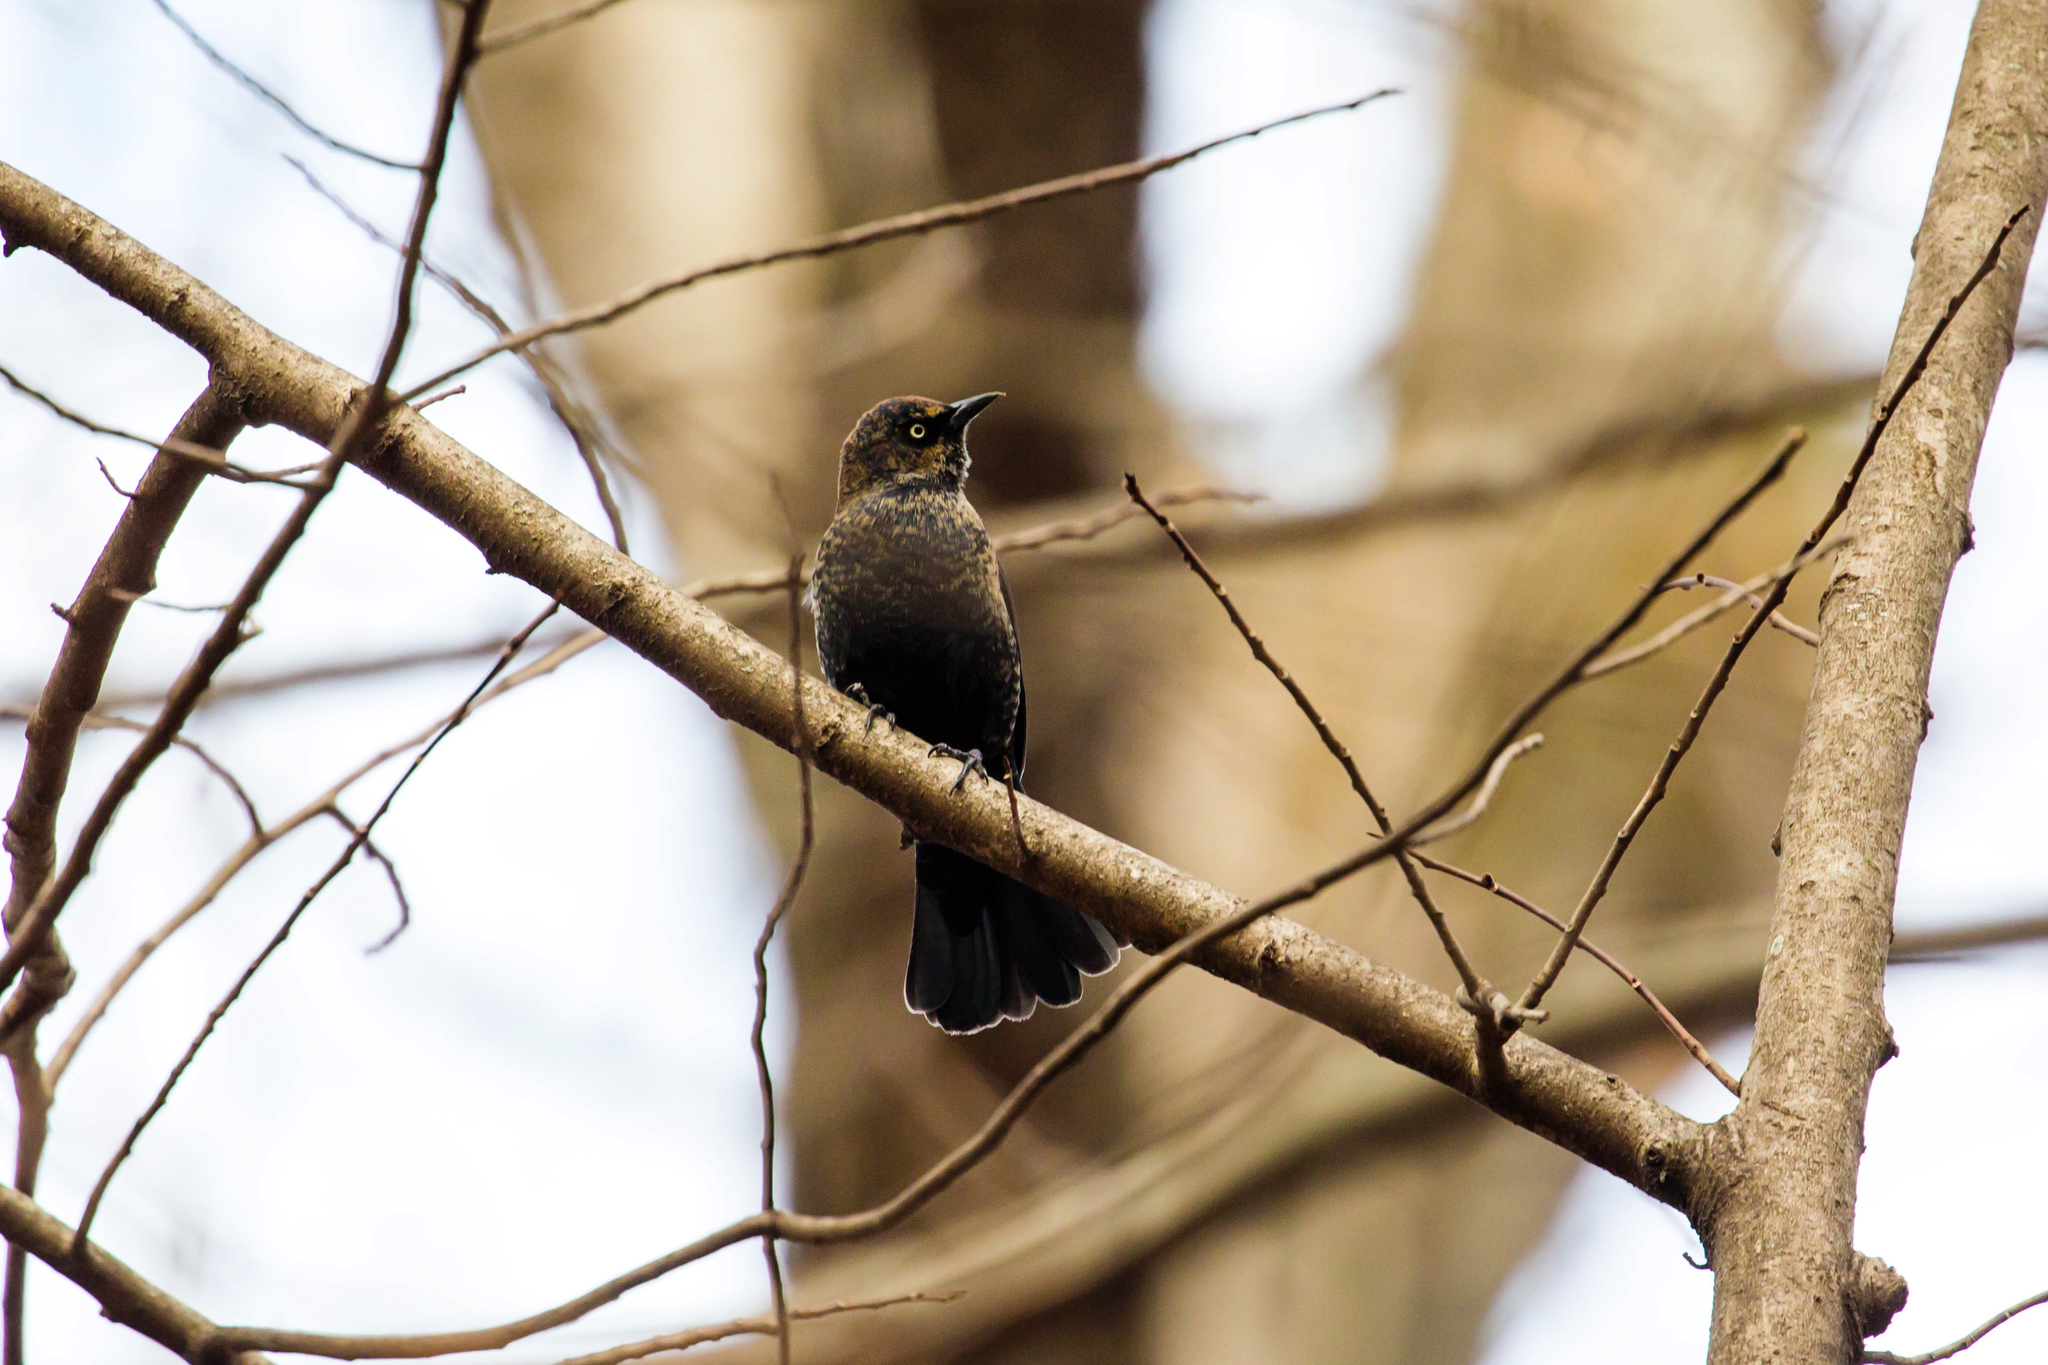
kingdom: Animalia
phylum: Chordata
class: Aves
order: Passeriformes
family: Icteridae
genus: Euphagus
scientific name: Euphagus carolinus
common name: Rusty blackbird
